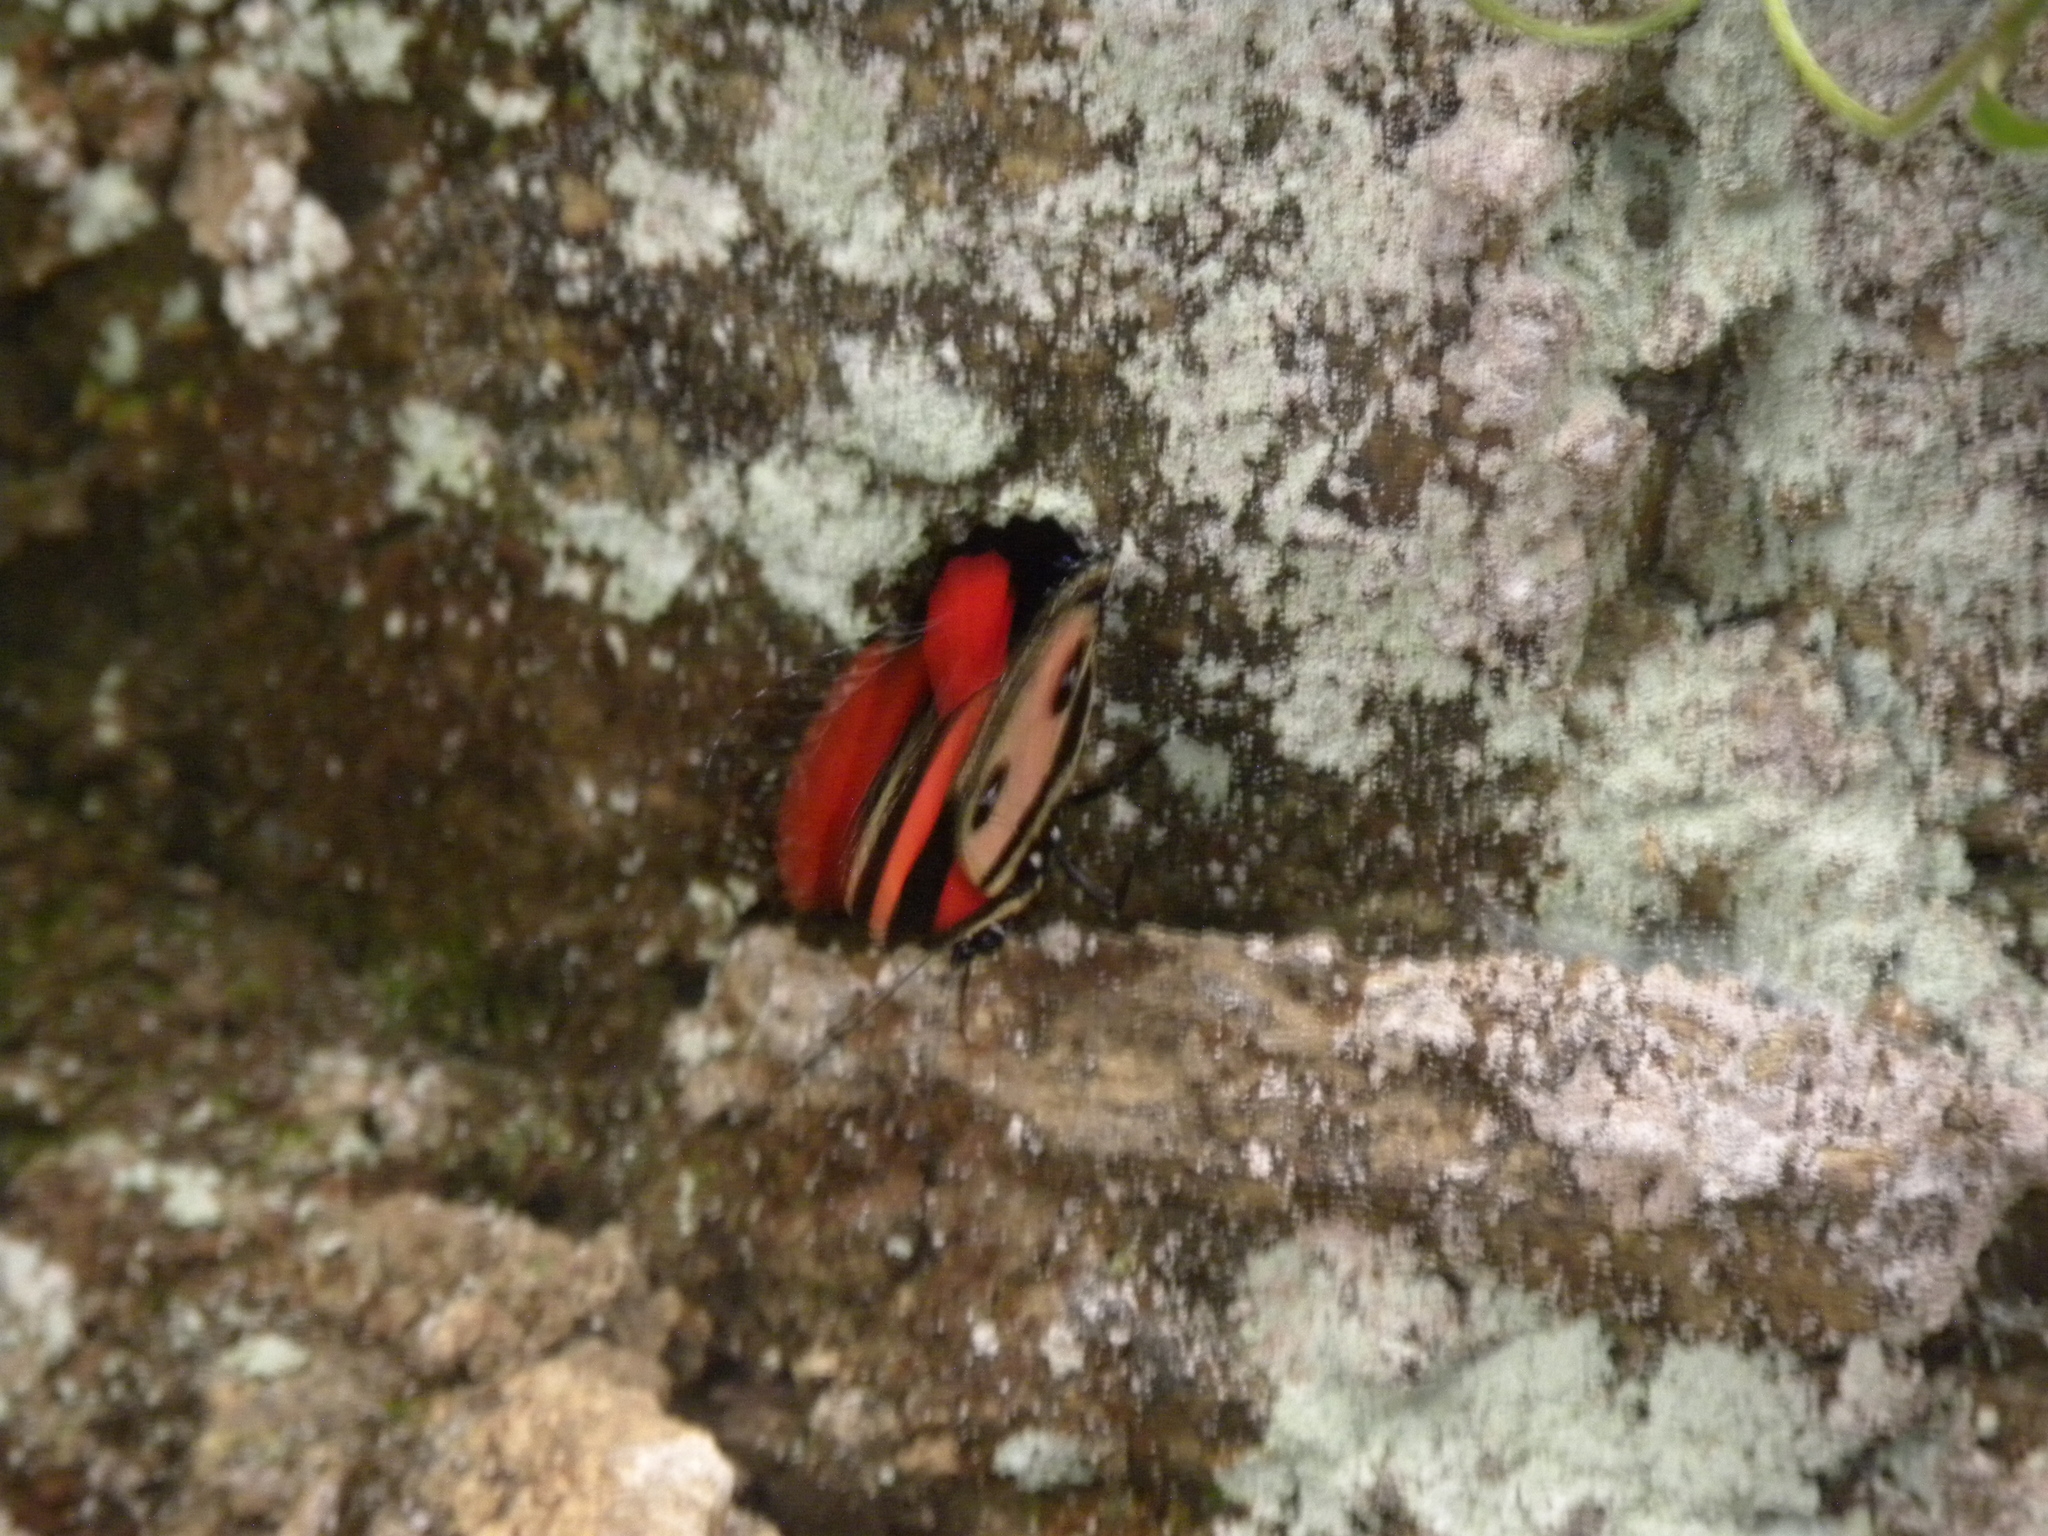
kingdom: Animalia
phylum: Arthropoda
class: Insecta
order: Lepidoptera
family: Nymphalidae
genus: Catagramma
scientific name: Catagramma Callicore pitheas
